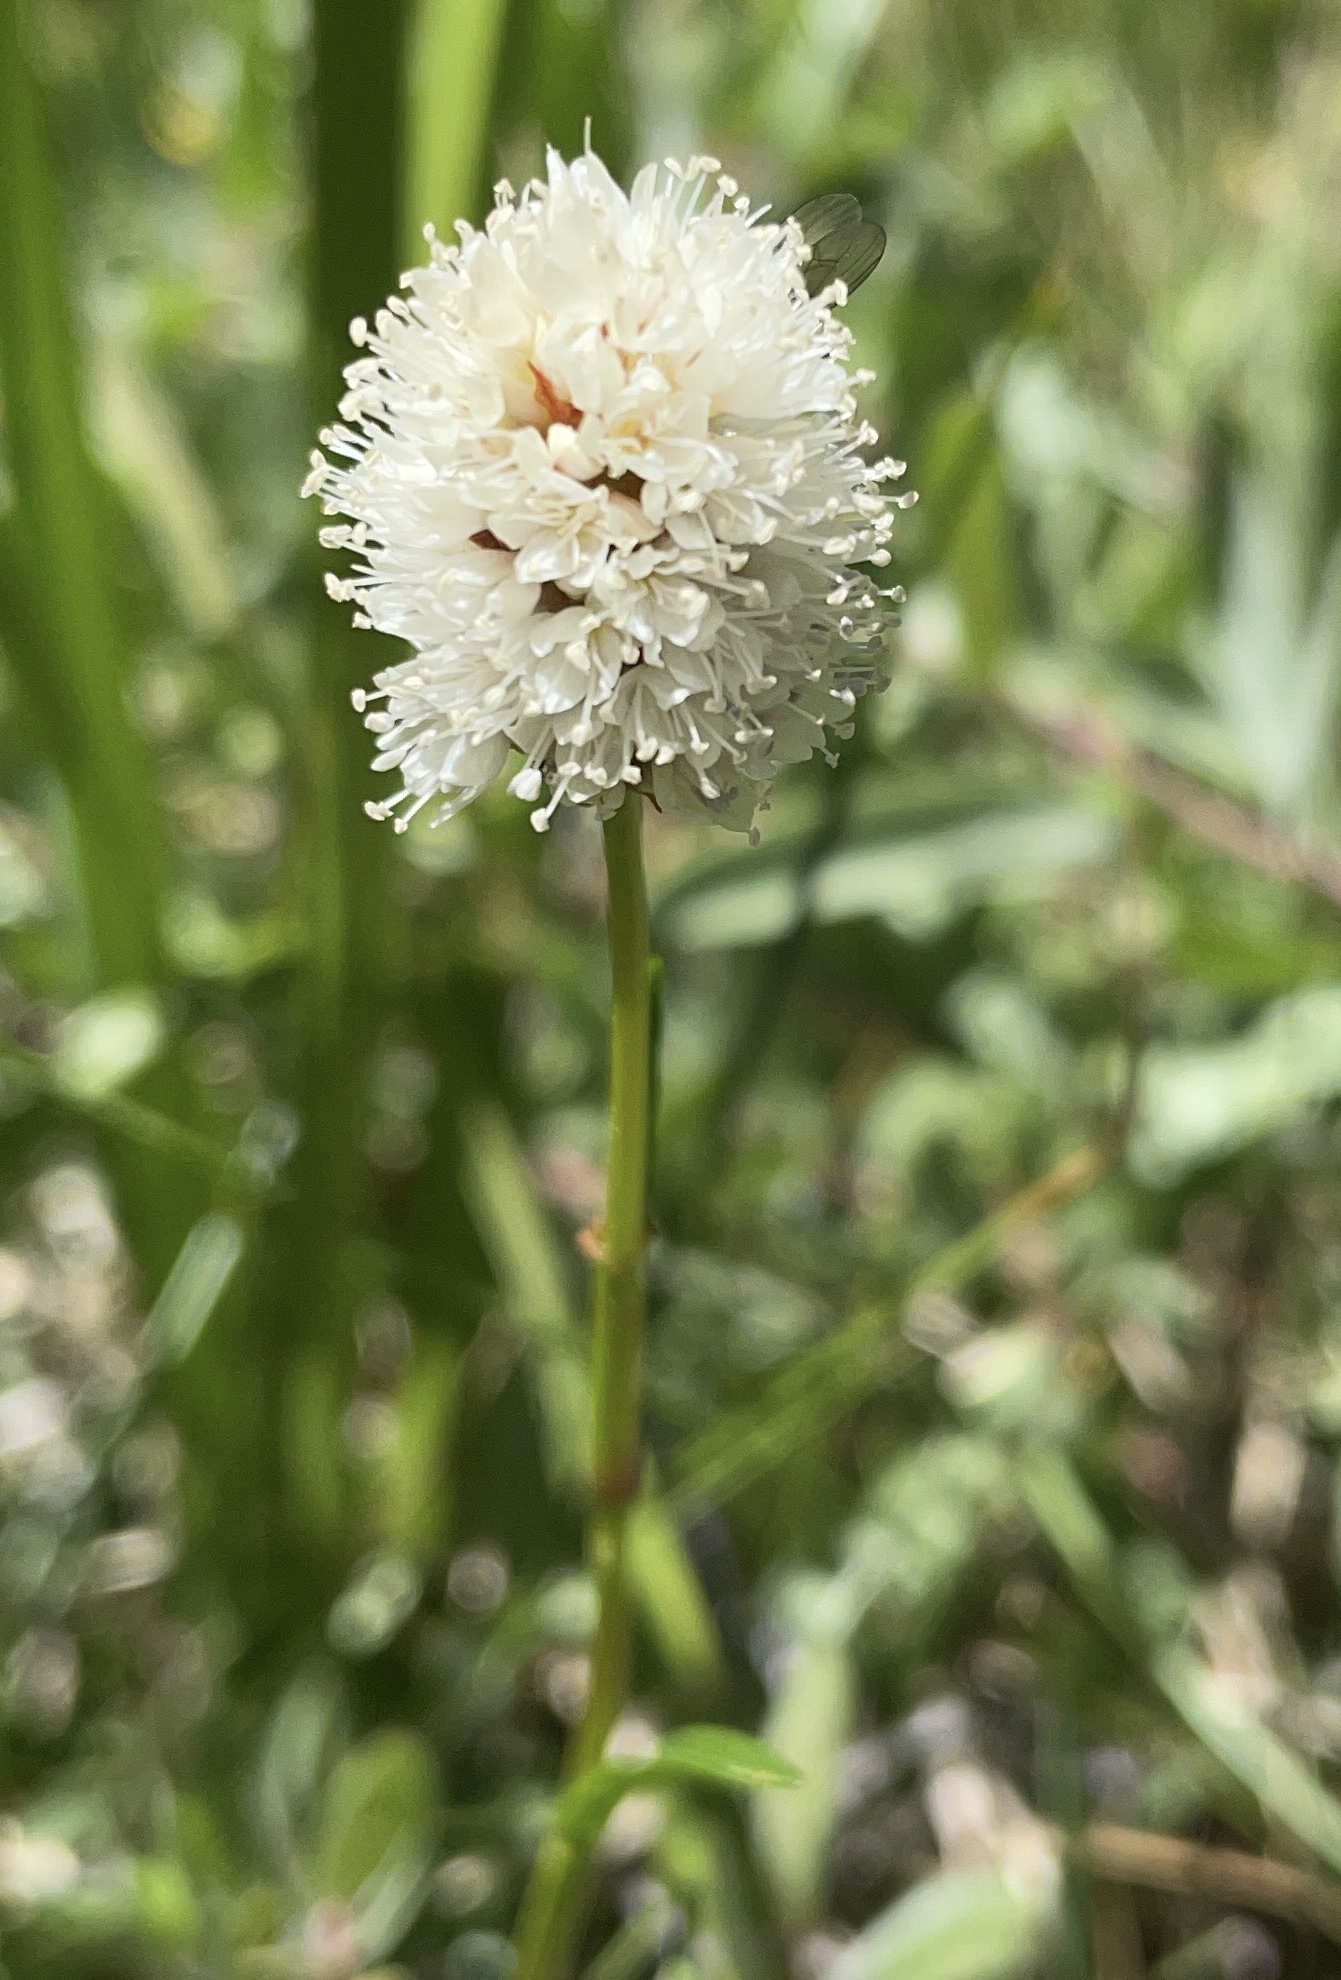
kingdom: Plantae
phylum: Tracheophyta
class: Magnoliopsida
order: Caryophyllales
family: Polygonaceae
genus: Bistorta
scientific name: Bistorta bistortoides
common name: American bistort
